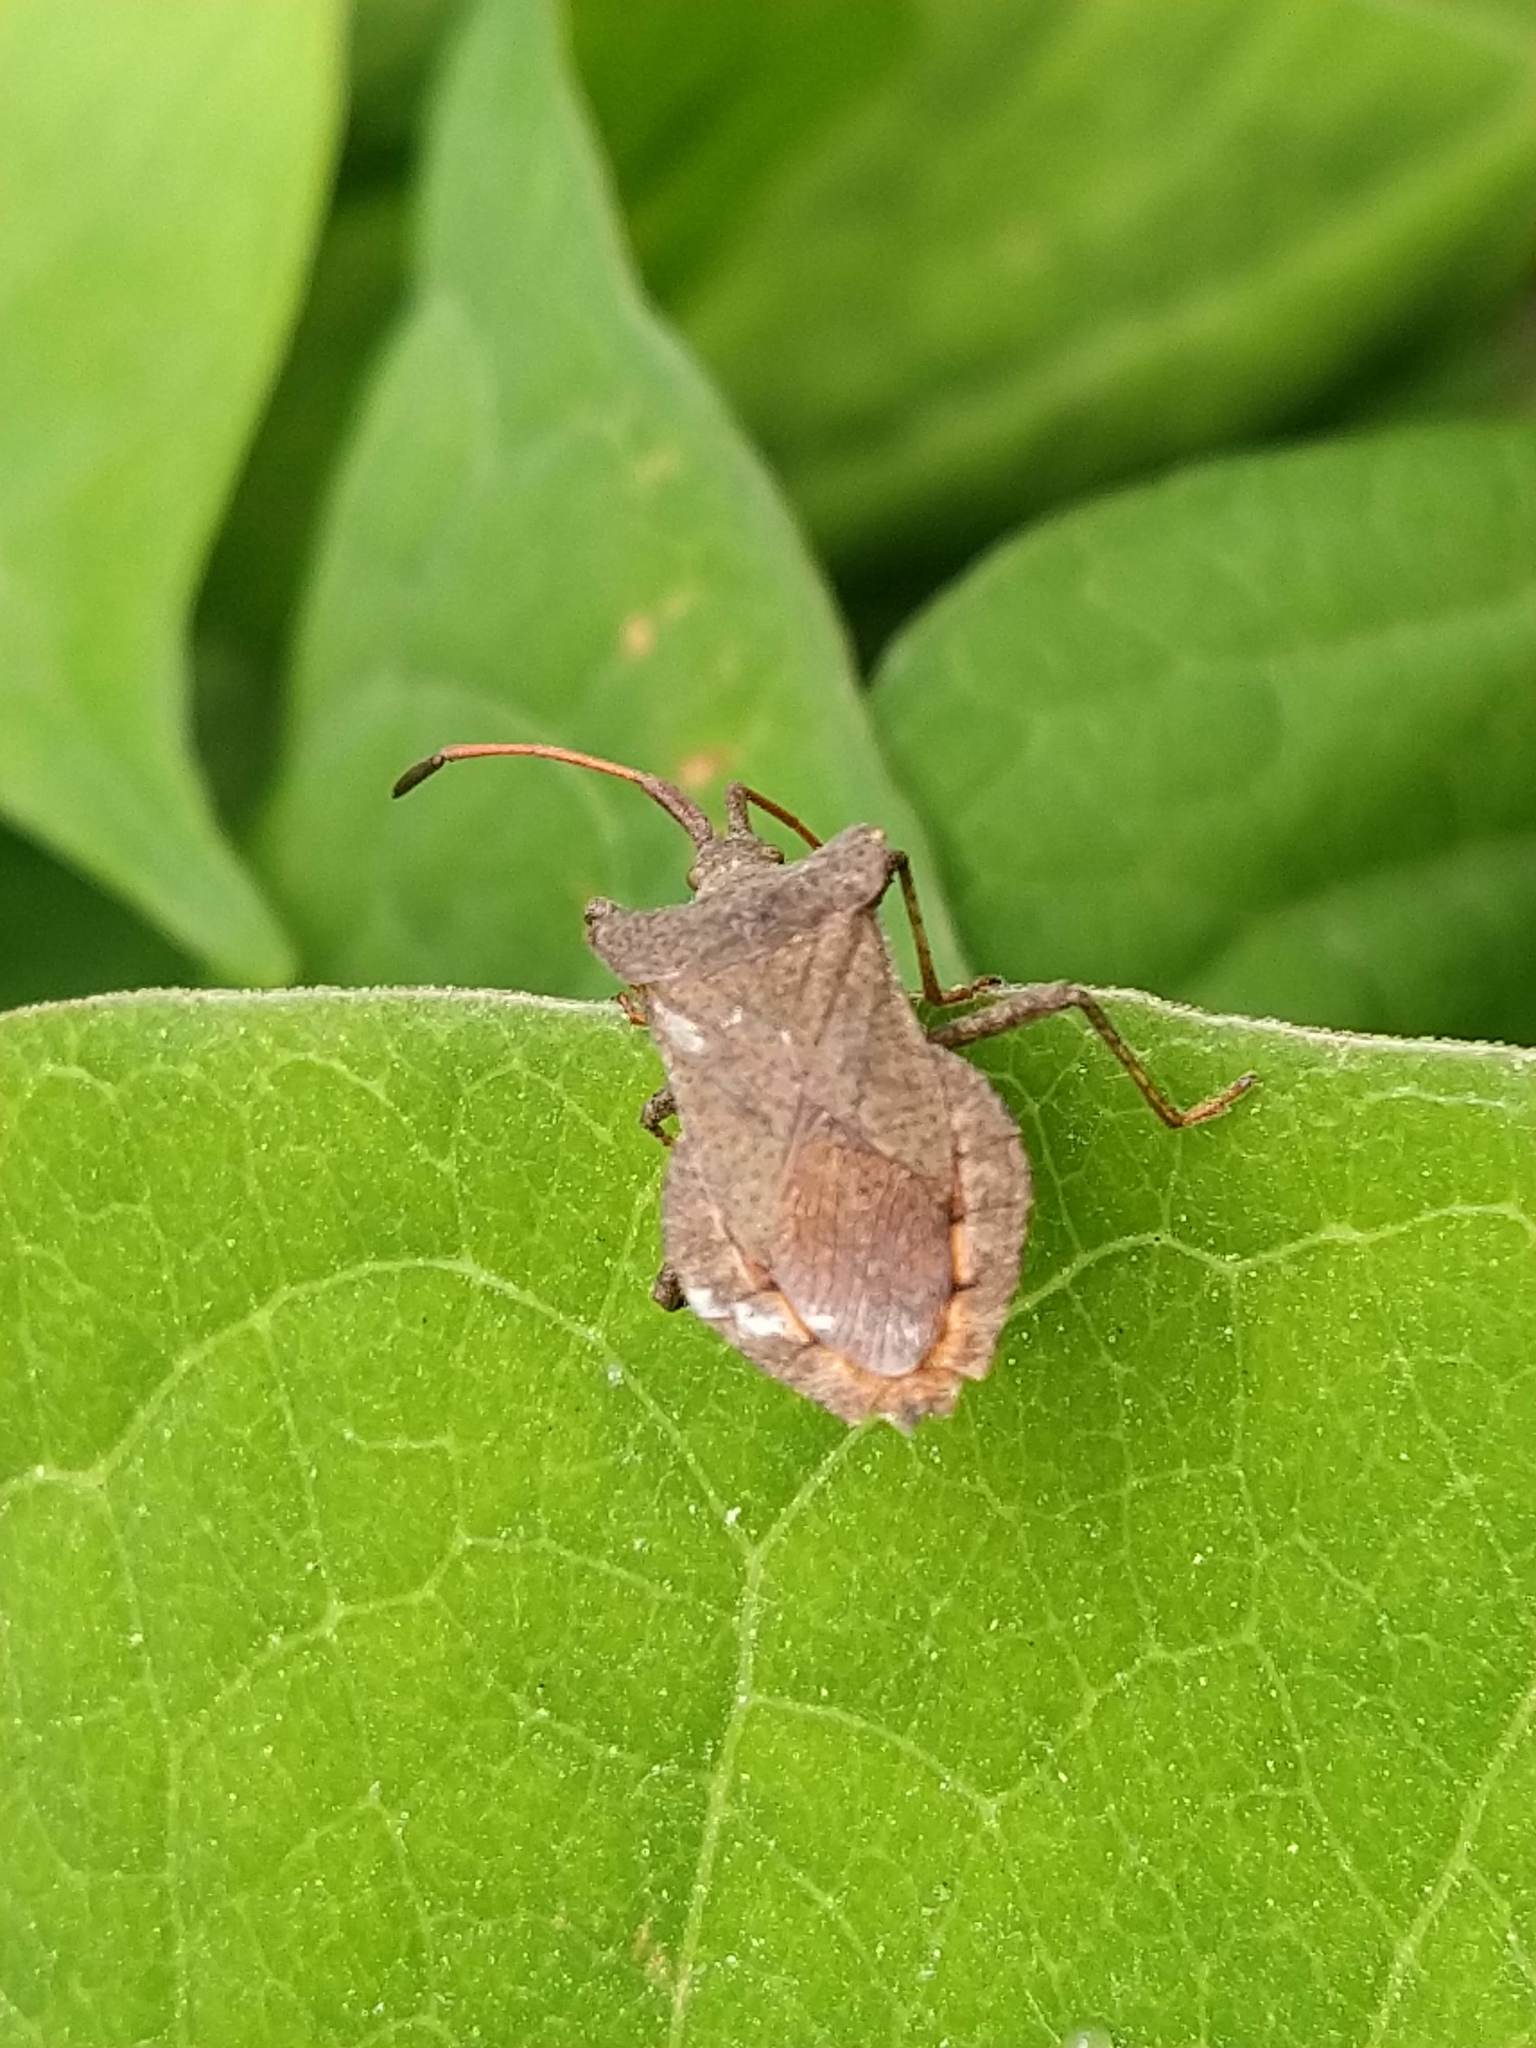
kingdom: Animalia
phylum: Arthropoda
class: Insecta
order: Hemiptera
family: Coreidae
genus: Coreus
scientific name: Coreus marginatus
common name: Dock bug
